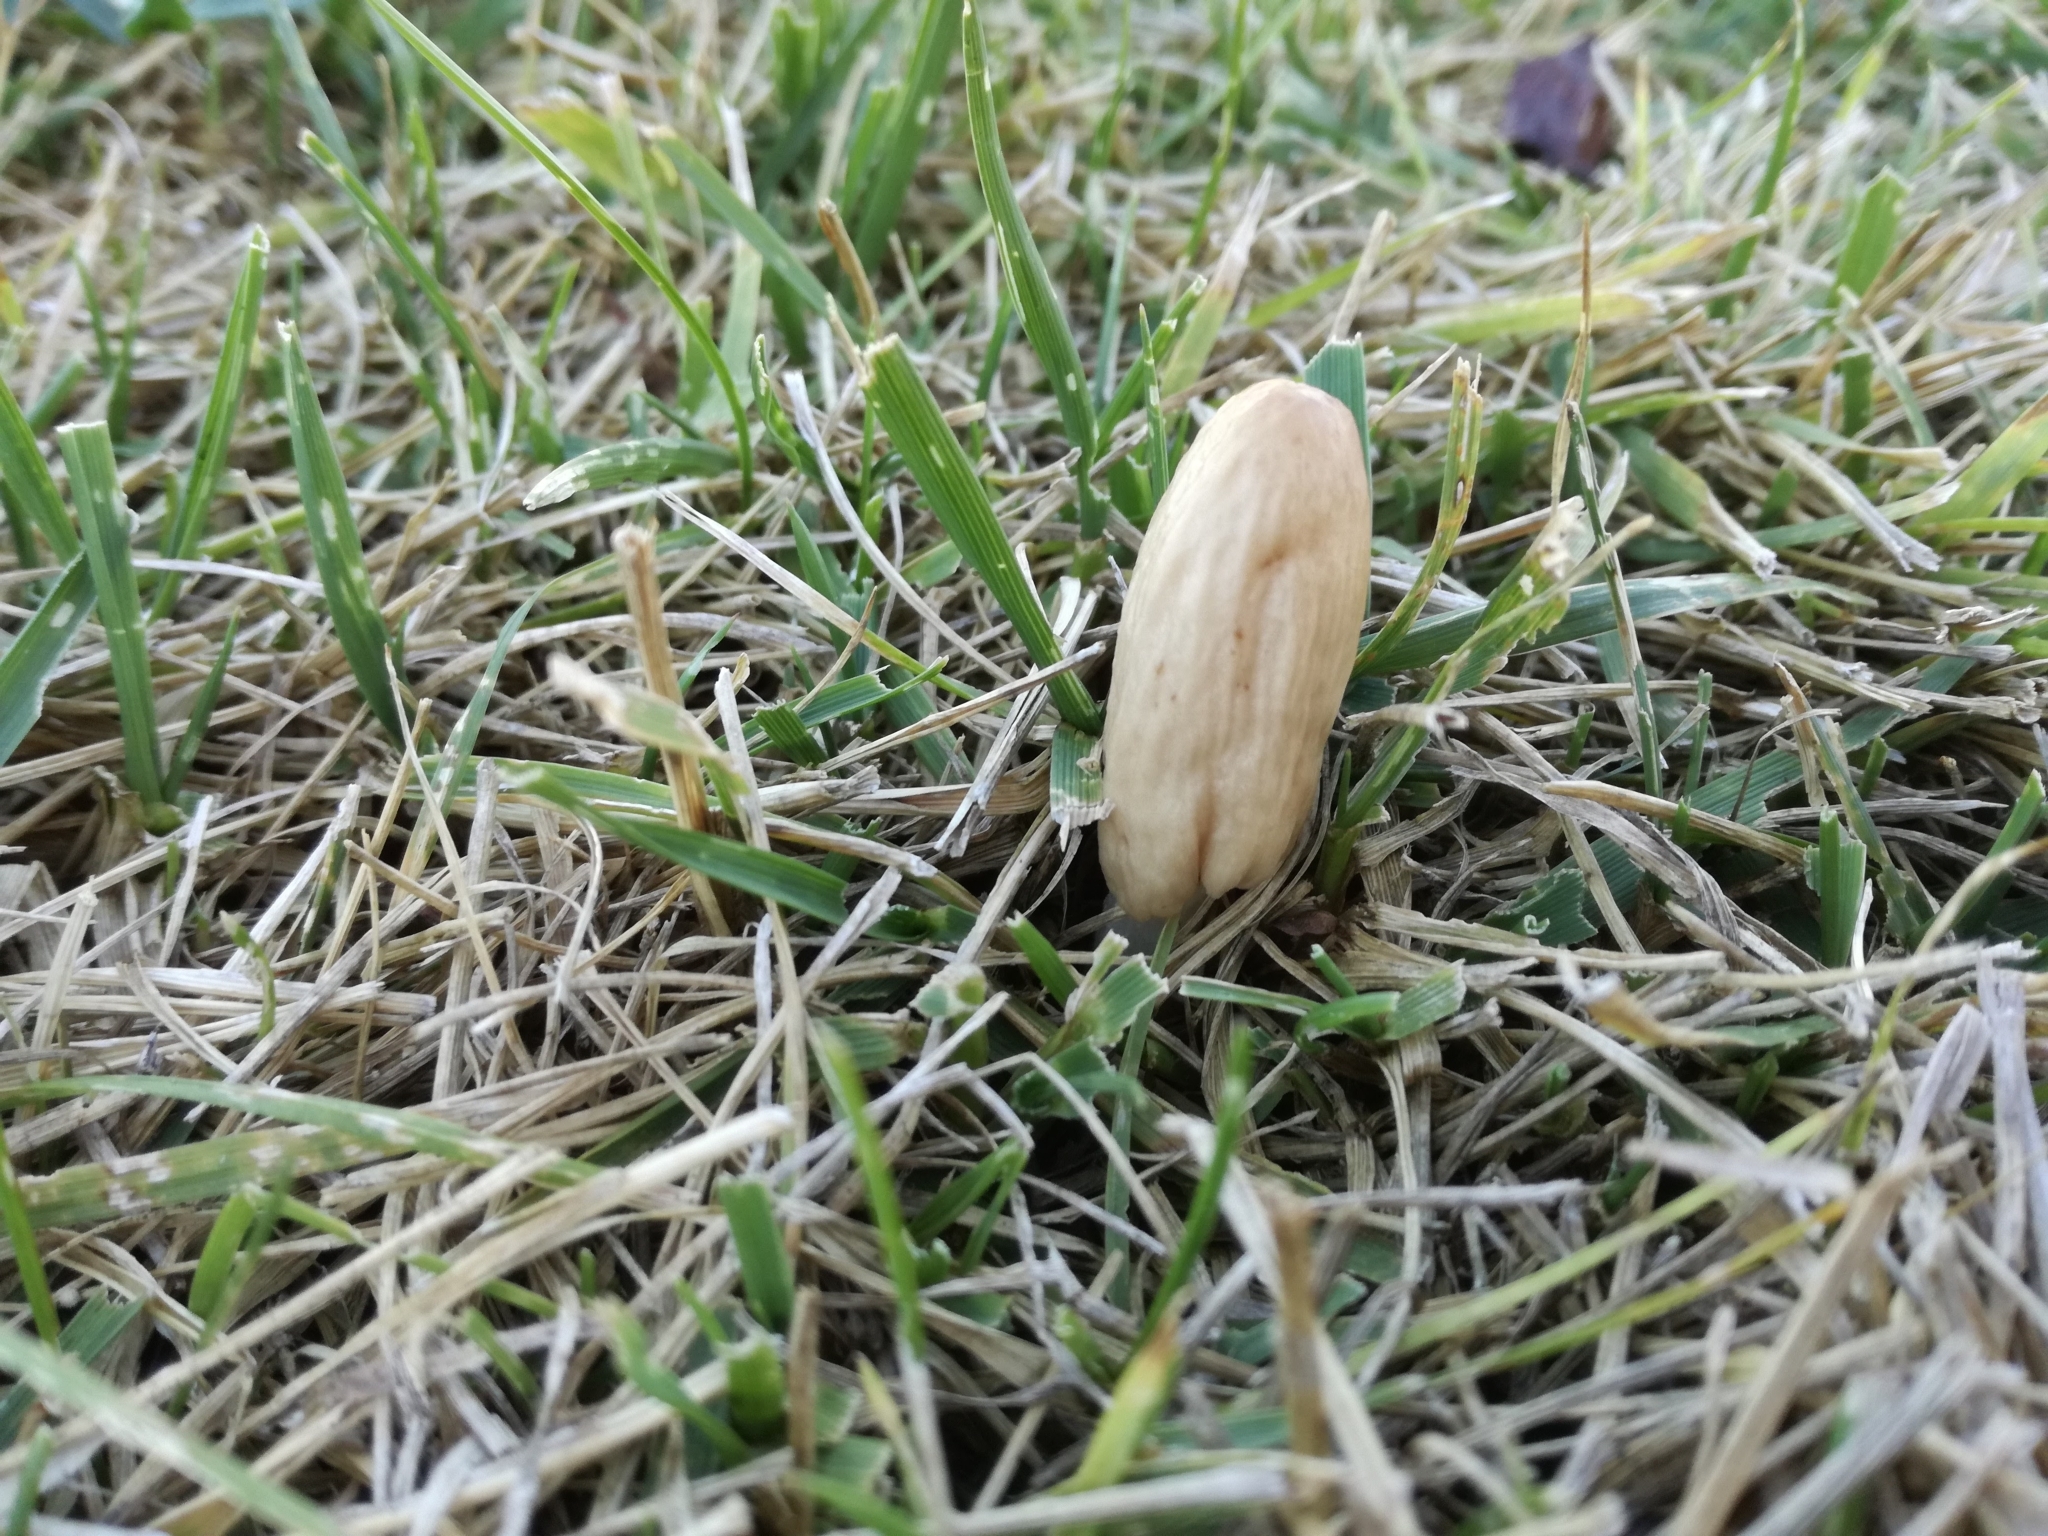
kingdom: Fungi
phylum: Basidiomycota
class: Agaricomycetes
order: Agaricales
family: Bolbitiaceae
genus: Conocybe
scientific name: Conocybe apala
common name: Milky conecap
